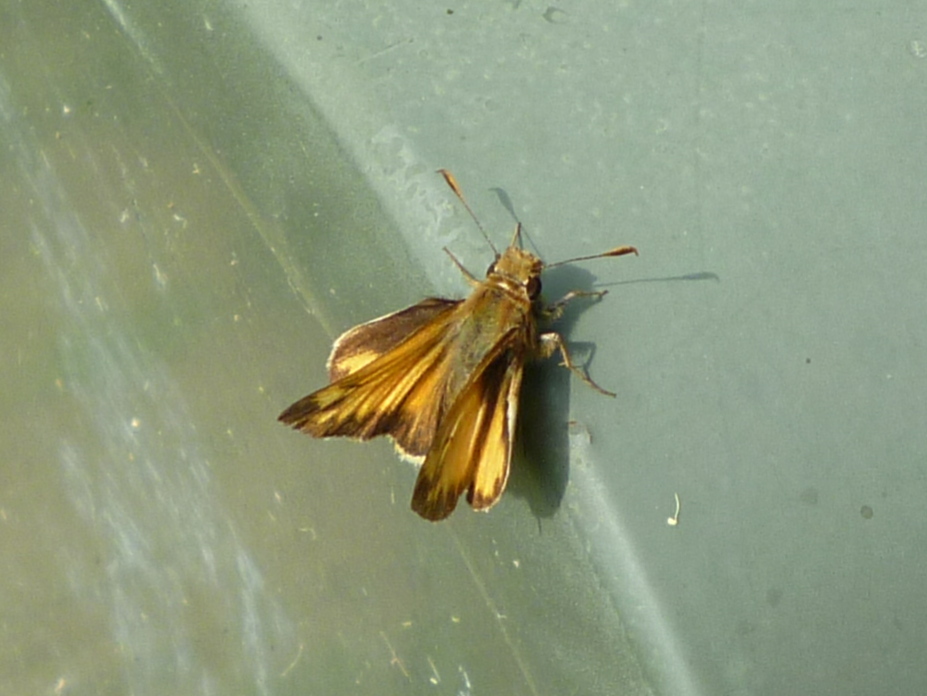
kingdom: Animalia
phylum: Arthropoda
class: Insecta
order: Lepidoptera
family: Hesperiidae
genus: Lon
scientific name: Lon zabulon
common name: Zabulon skipper
